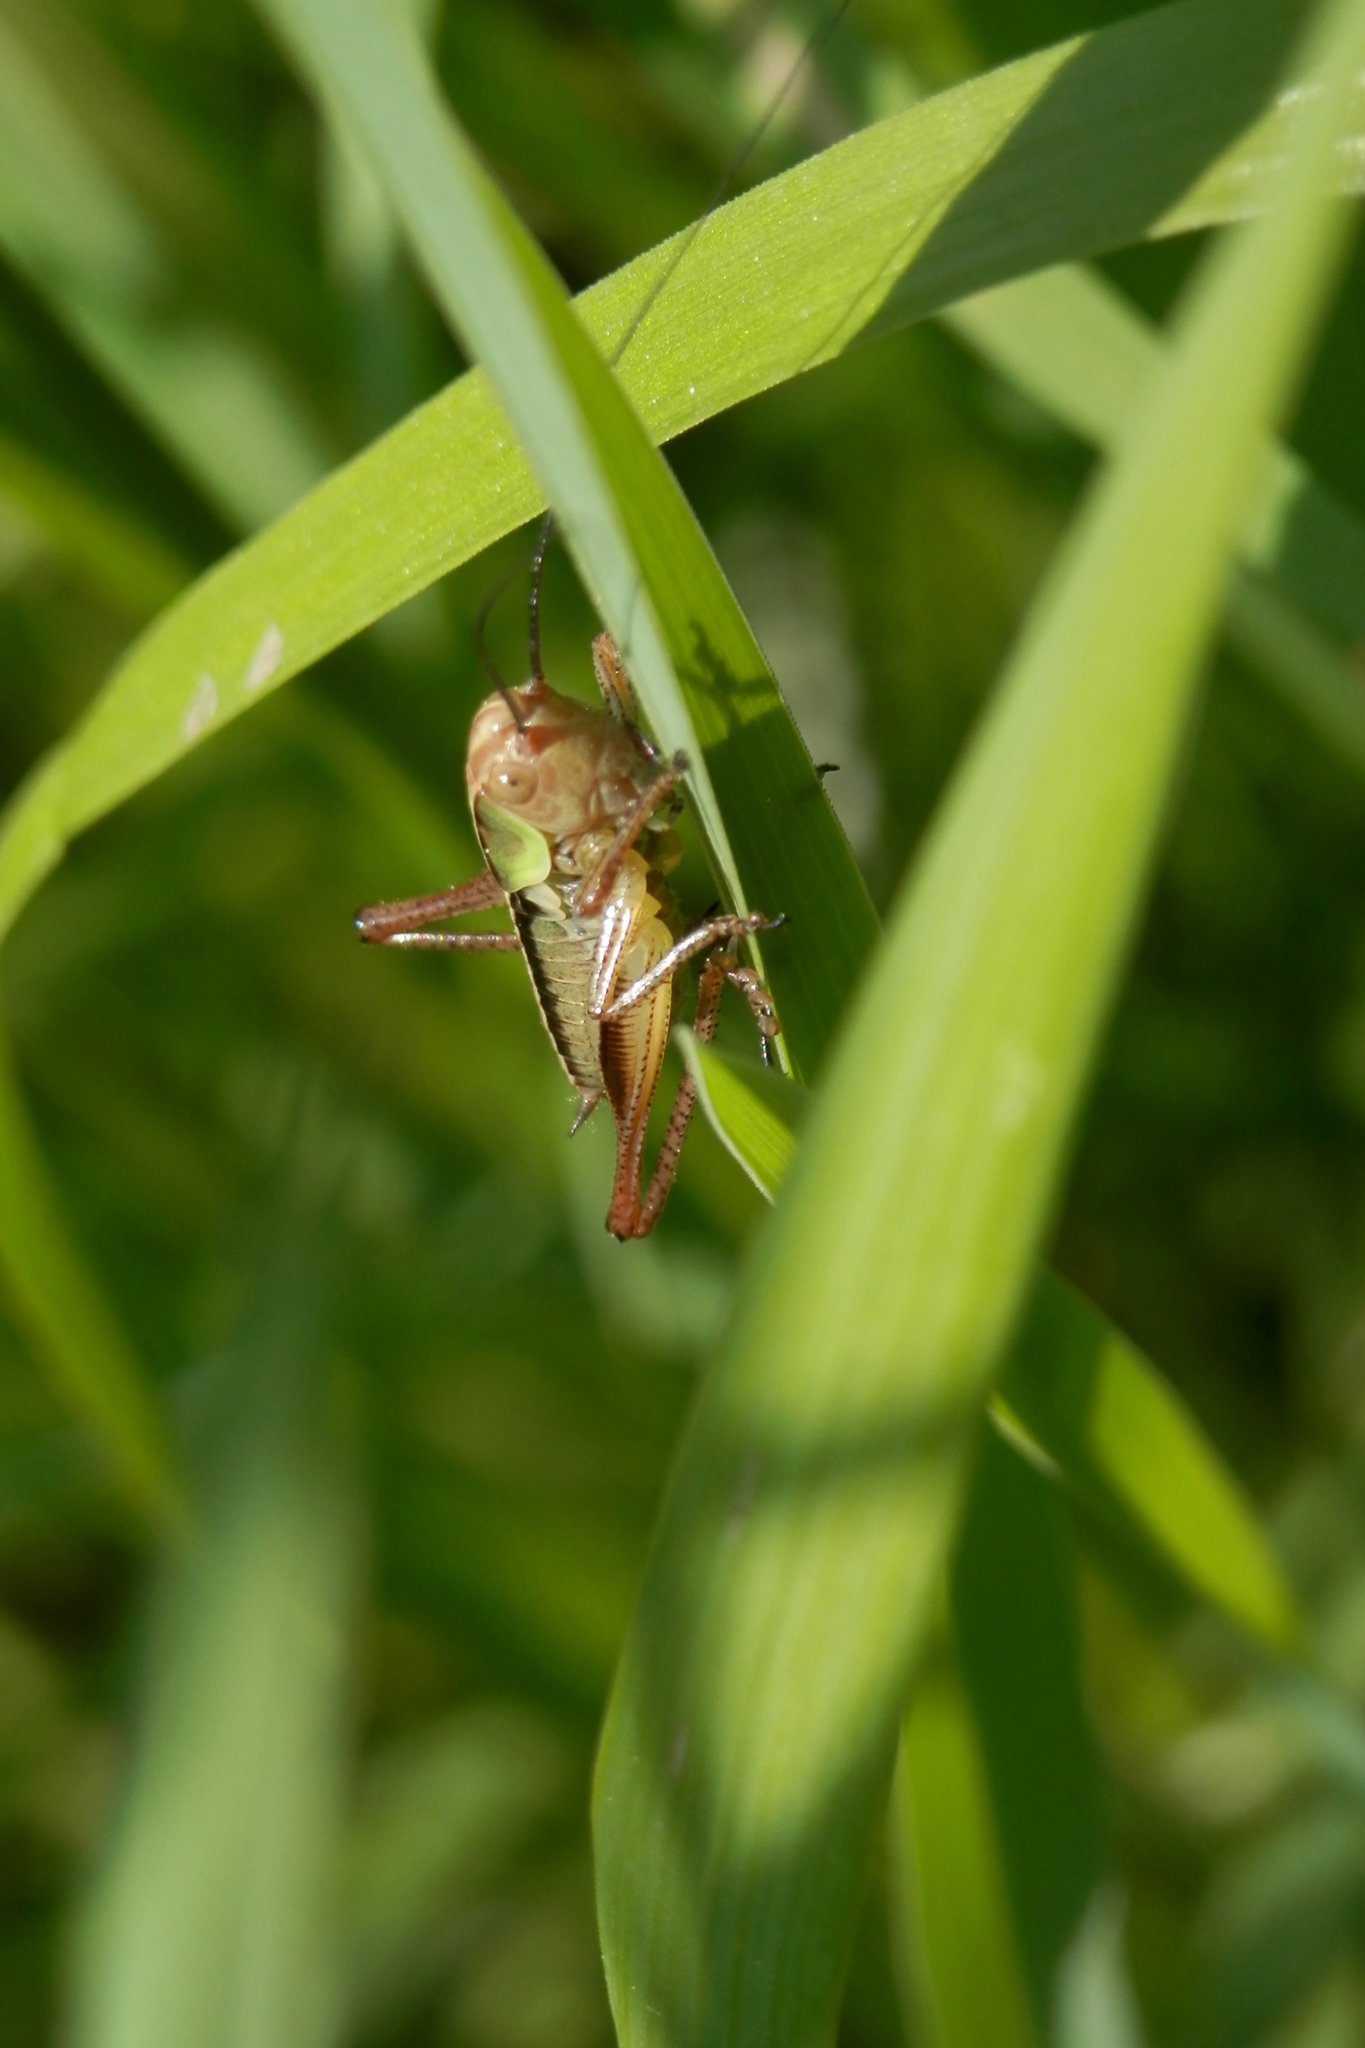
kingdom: Animalia
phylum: Arthropoda
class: Insecta
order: Orthoptera
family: Tettigoniidae
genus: Roeseliana
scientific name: Roeseliana roeselii
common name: Roesel's bush cricket
